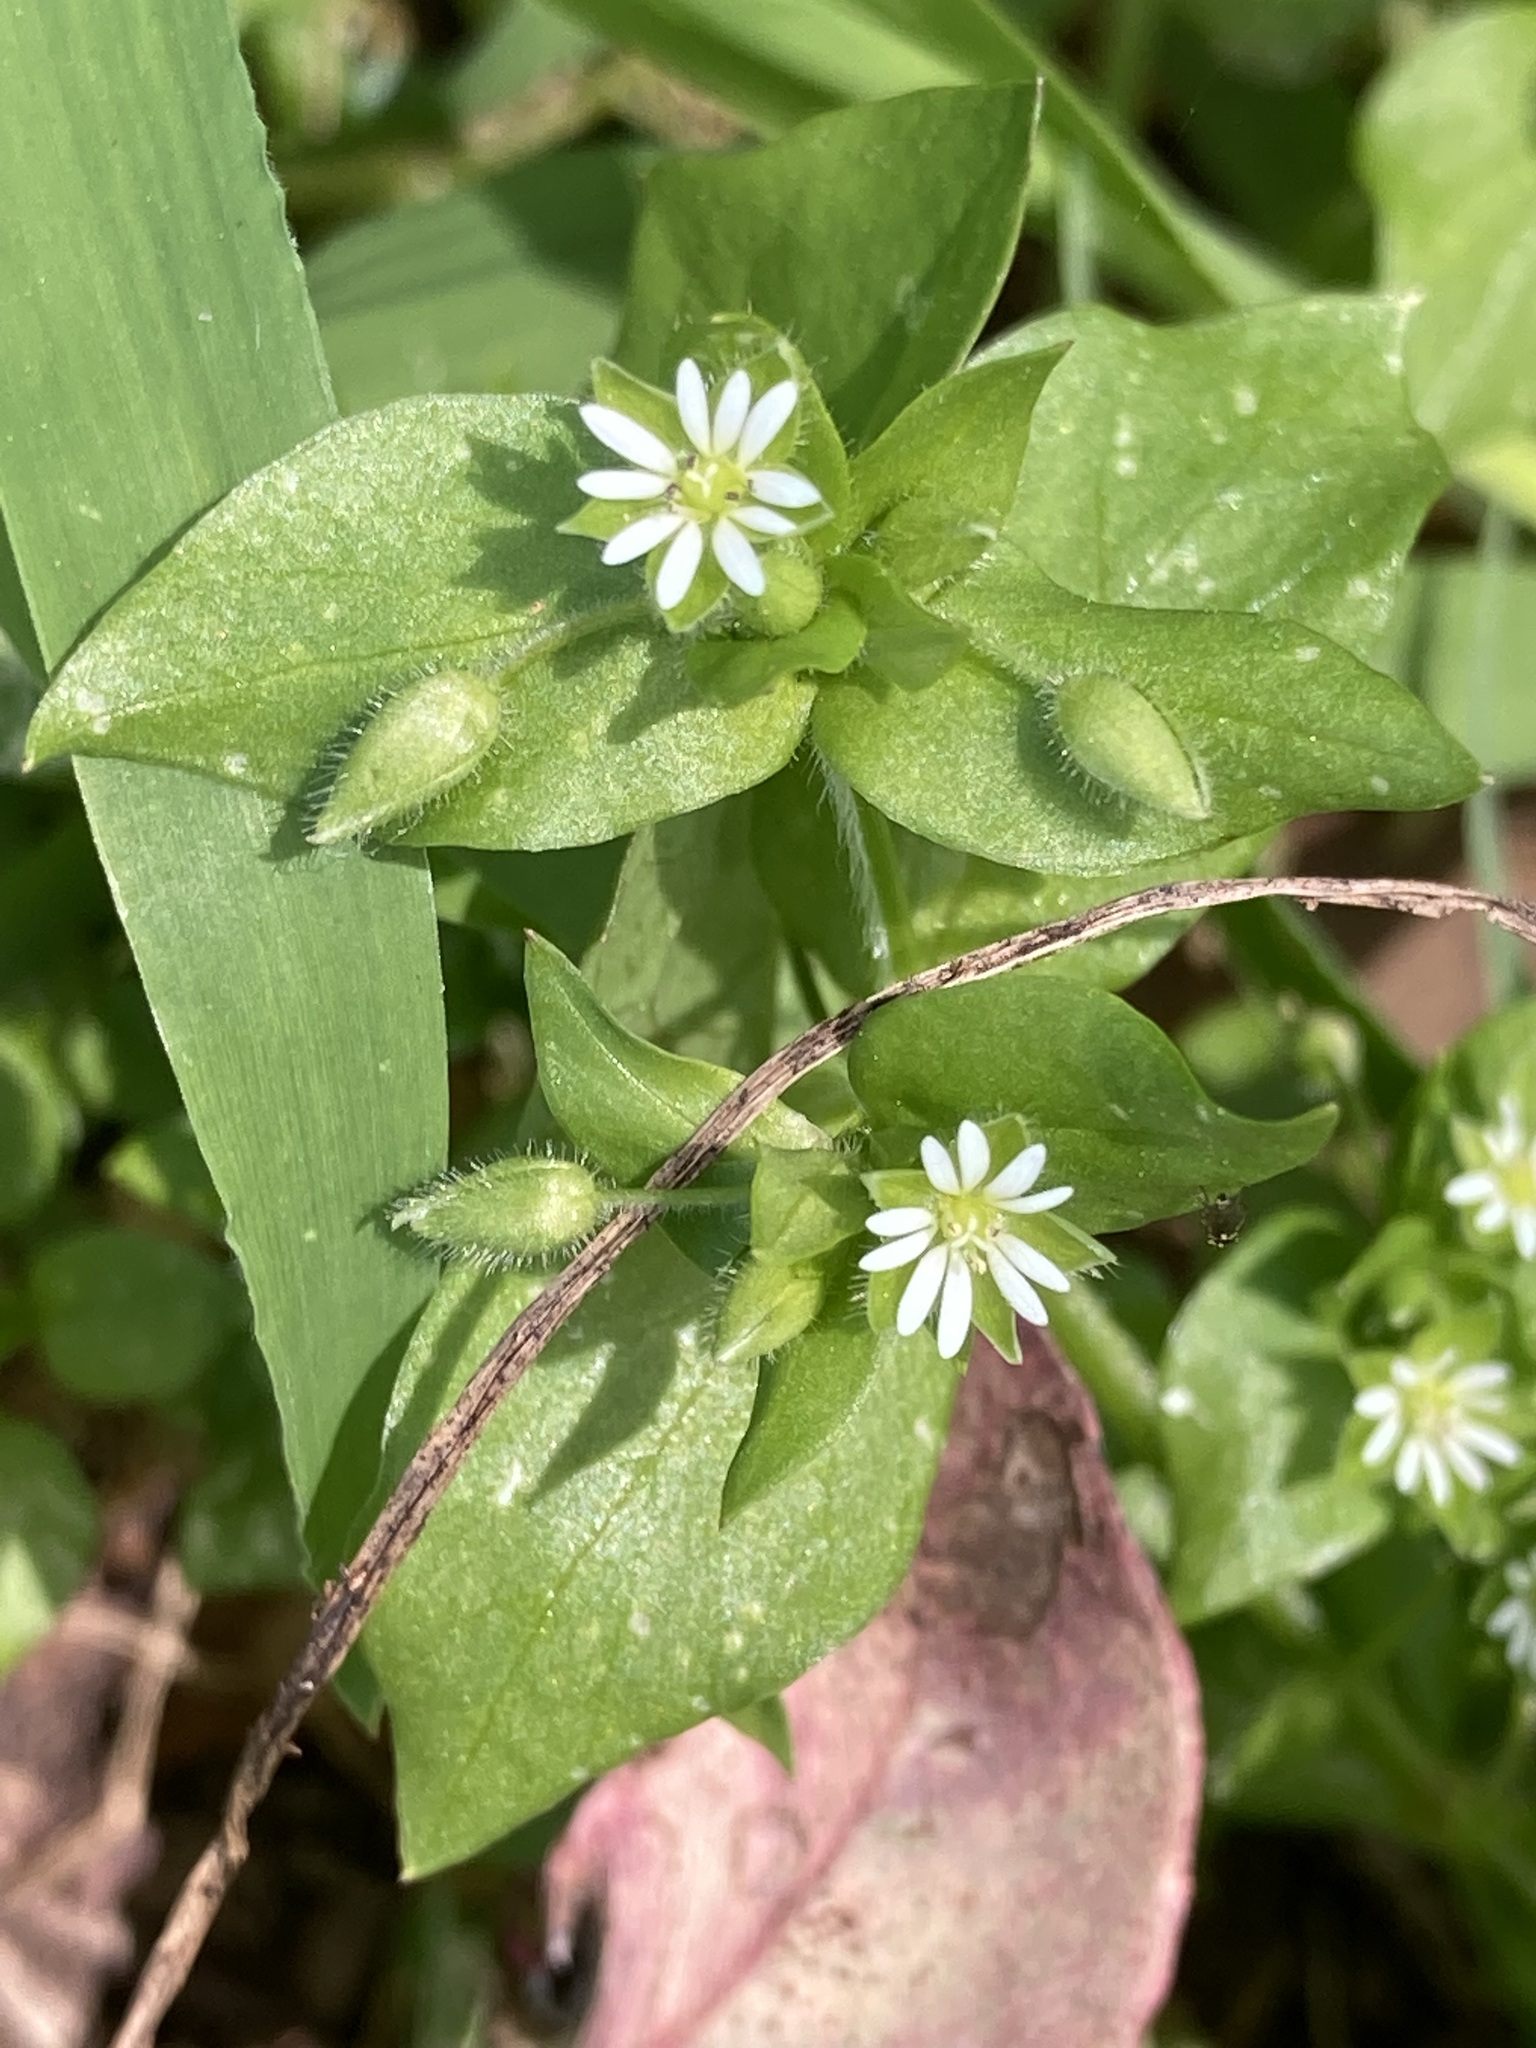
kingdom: Plantae
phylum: Tracheophyta
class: Magnoliopsida
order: Caryophyllales
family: Caryophyllaceae
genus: Stellaria
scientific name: Stellaria media
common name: Common chickweed
